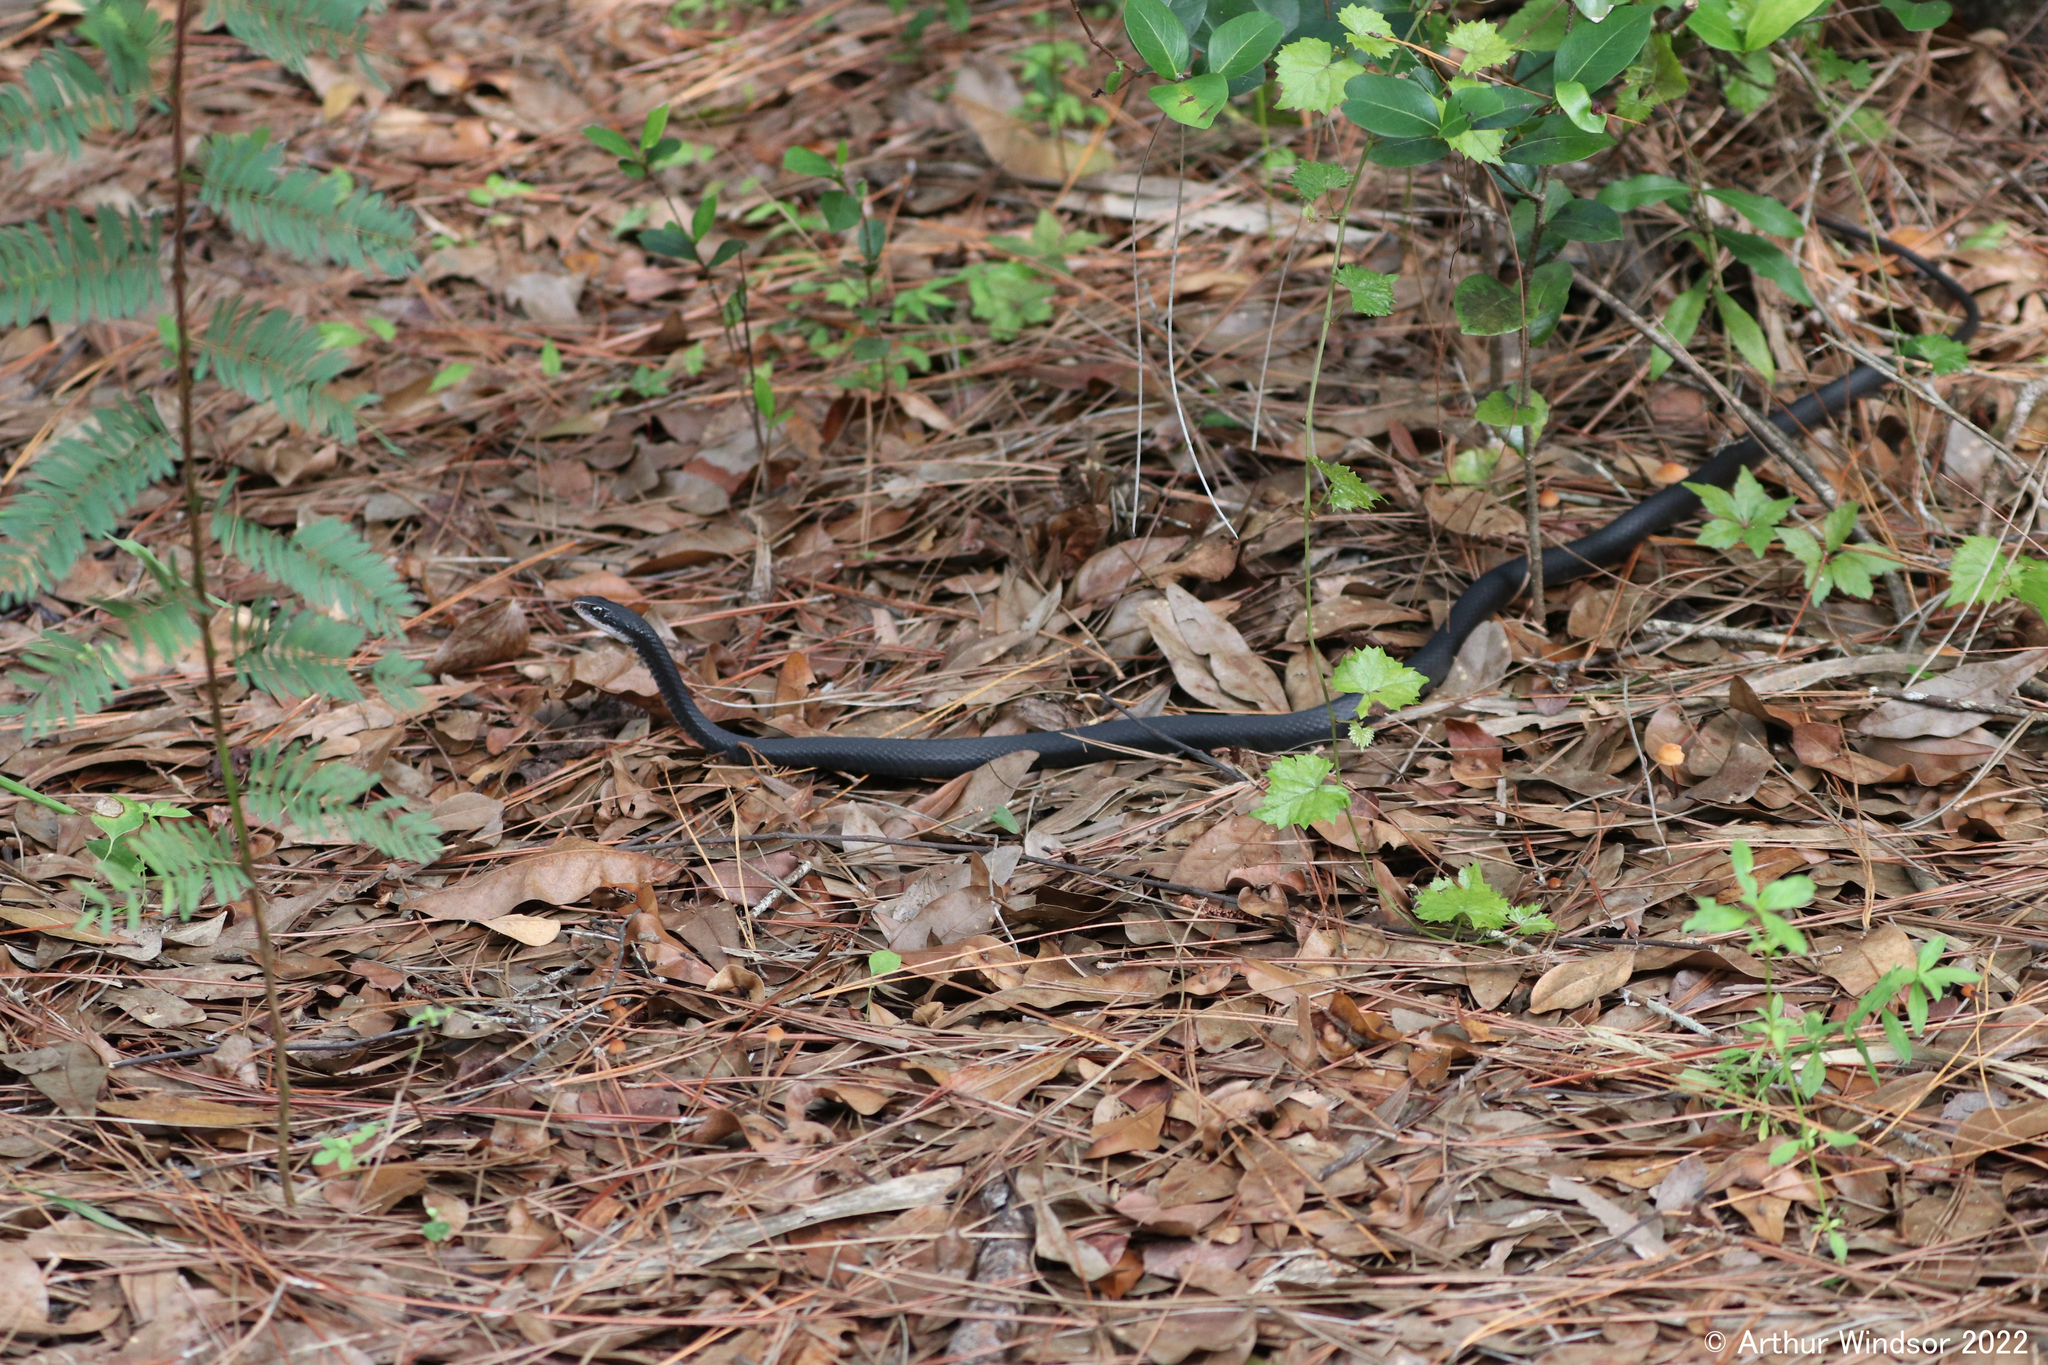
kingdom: Animalia
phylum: Chordata
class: Squamata
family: Colubridae
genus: Coluber
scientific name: Coluber constrictor
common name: Eastern racer
